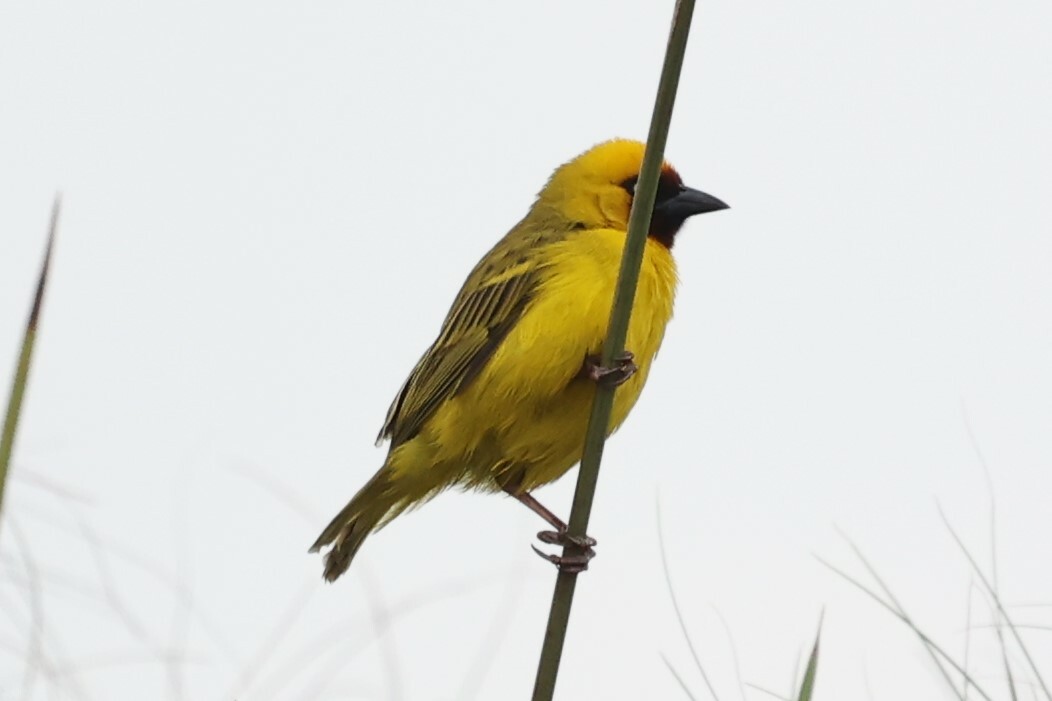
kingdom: Animalia
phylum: Chordata
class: Aves
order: Passeriformes
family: Ploceidae
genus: Ploceus
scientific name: Ploceus castanops
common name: Northern brown-throated weaver
